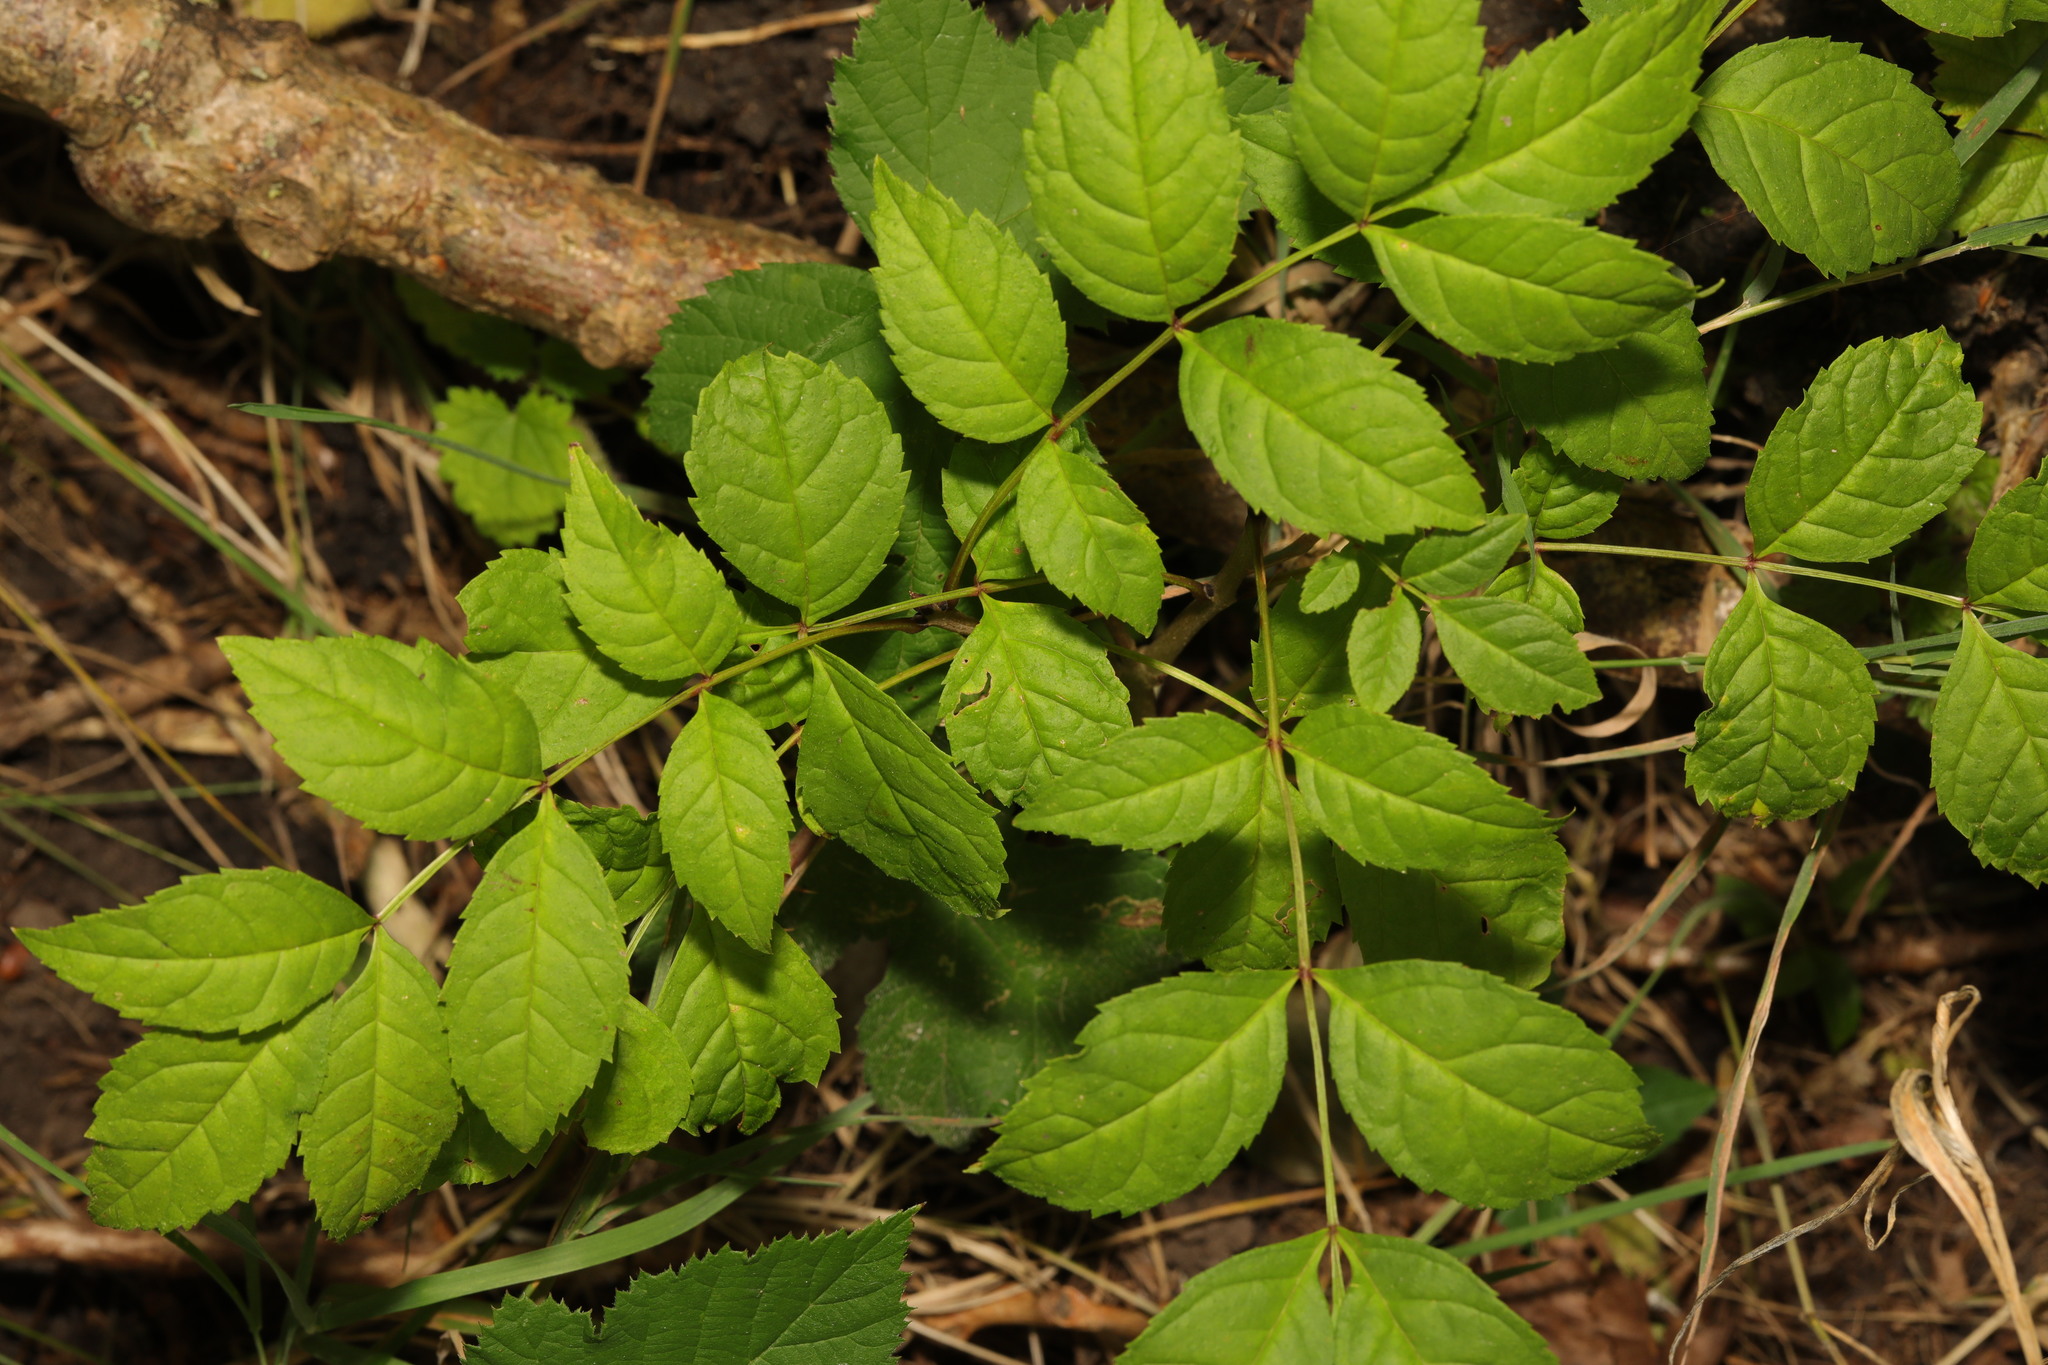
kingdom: Plantae
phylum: Tracheophyta
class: Magnoliopsida
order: Lamiales
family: Oleaceae
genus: Fraxinus
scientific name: Fraxinus excelsior
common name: European ash
